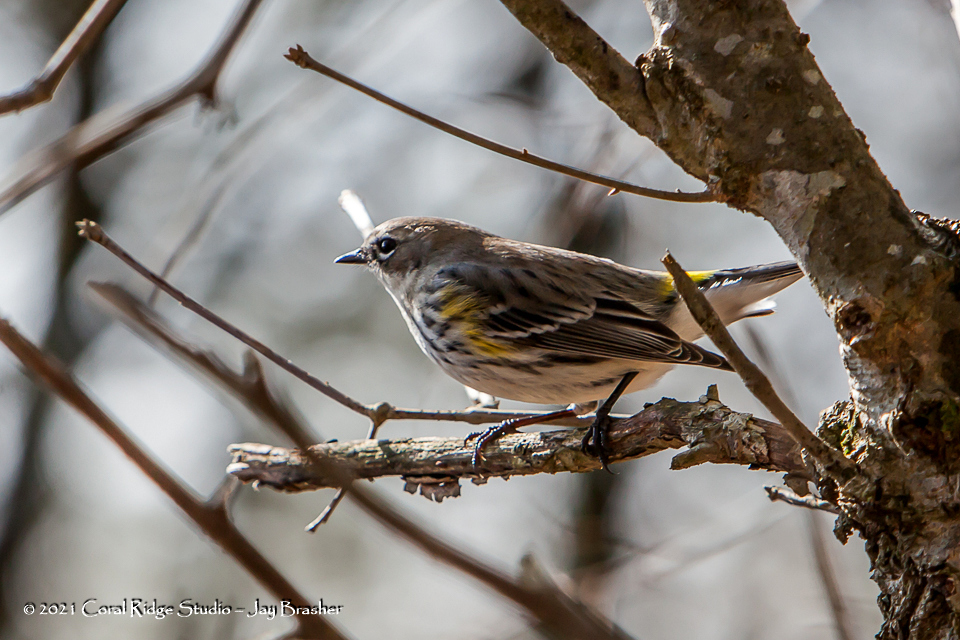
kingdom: Animalia
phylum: Chordata
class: Aves
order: Passeriformes
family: Parulidae
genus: Setophaga
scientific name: Setophaga coronata
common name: Myrtle warbler
